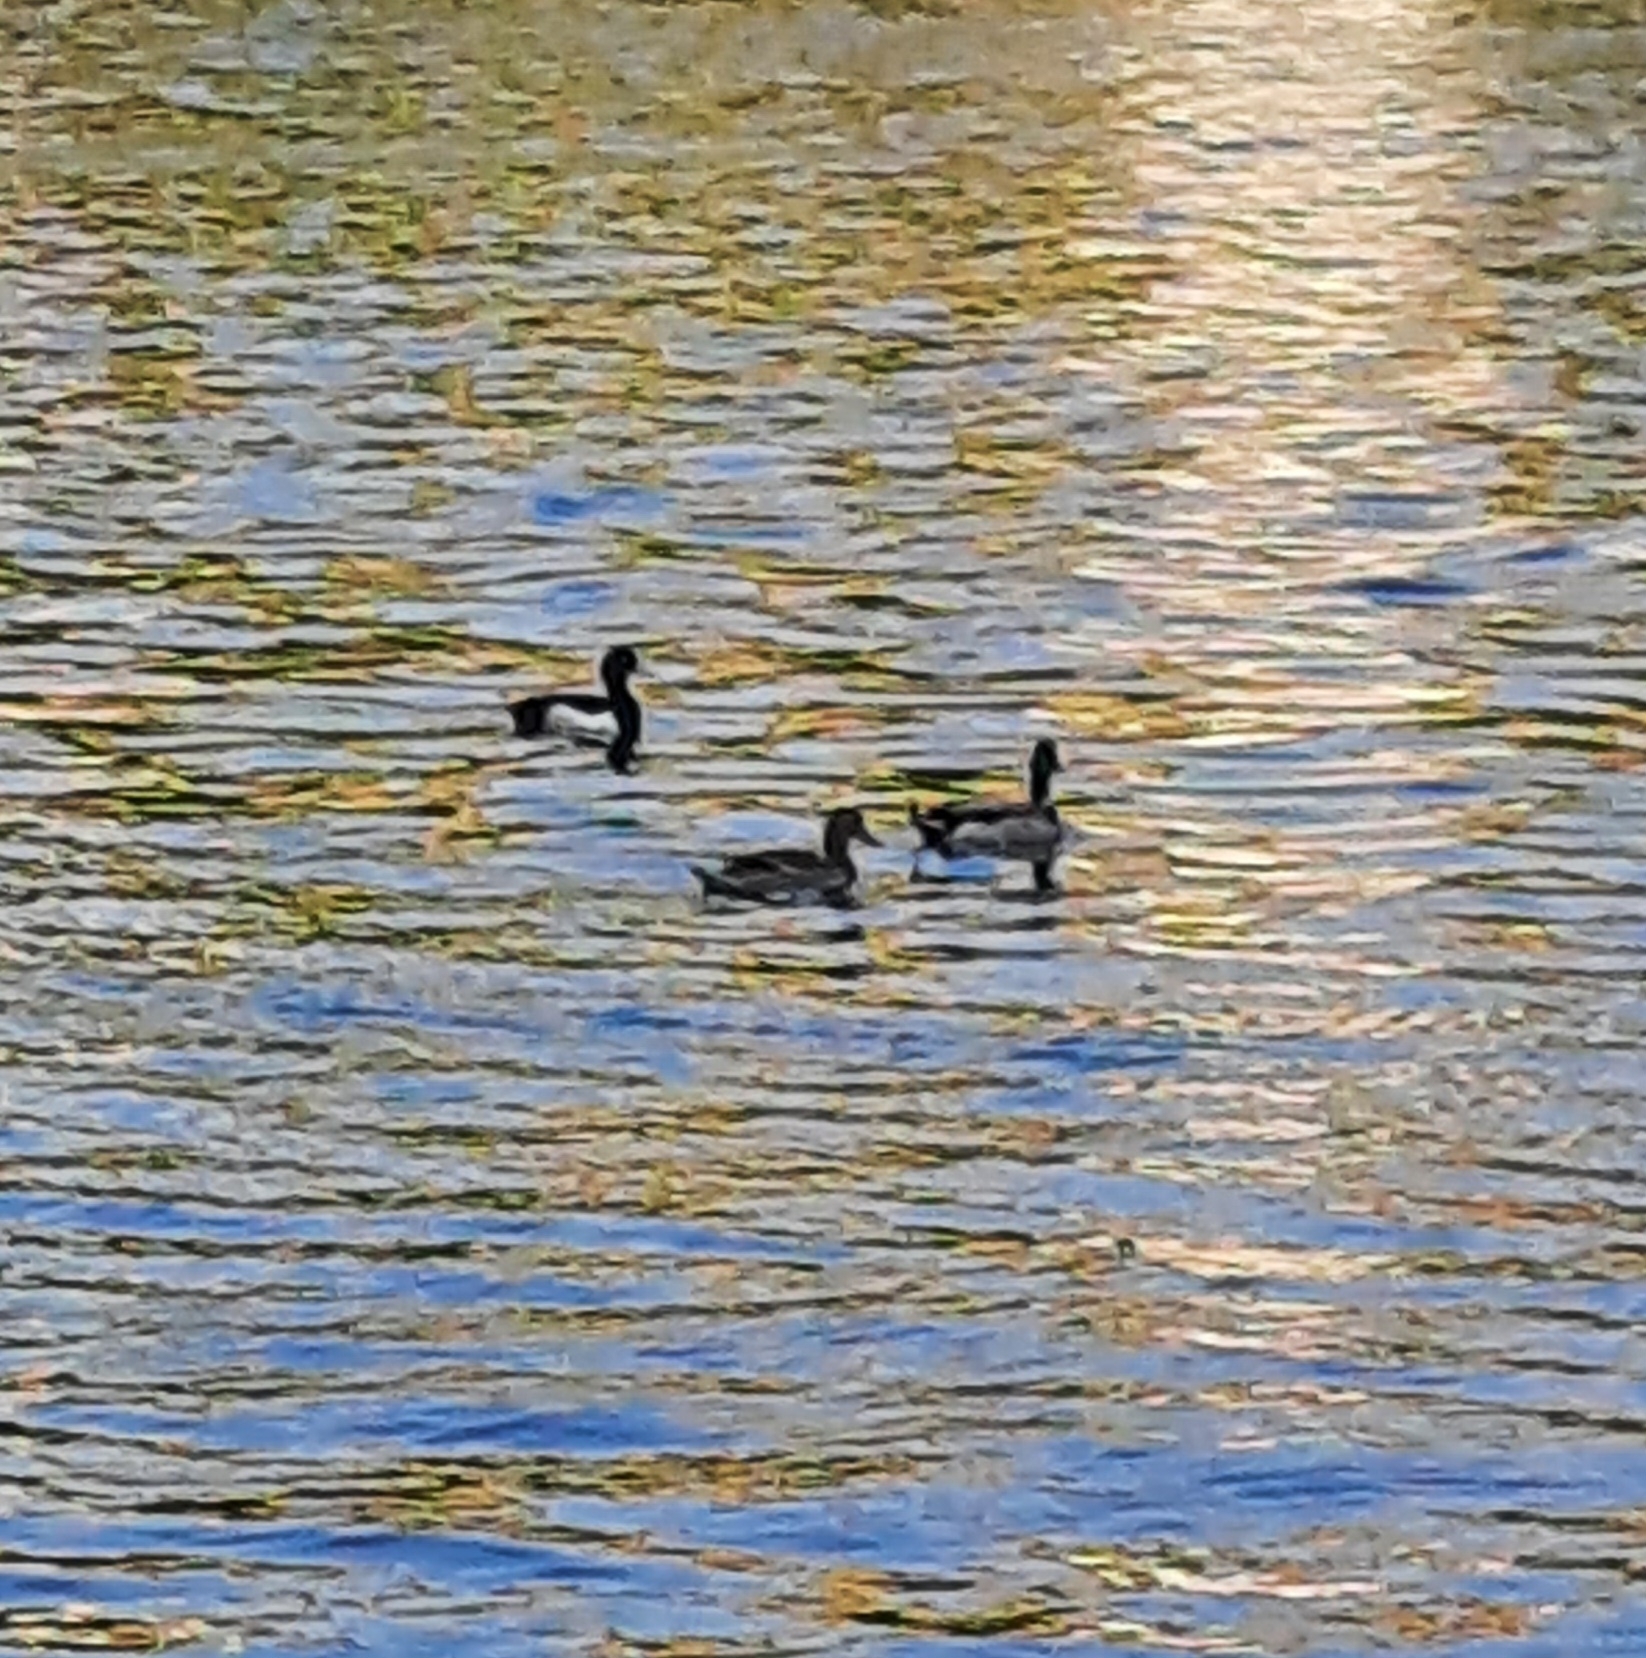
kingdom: Animalia
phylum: Chordata
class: Aves
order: Anseriformes
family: Anatidae
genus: Anas
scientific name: Anas platyrhynchos
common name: Mallard
